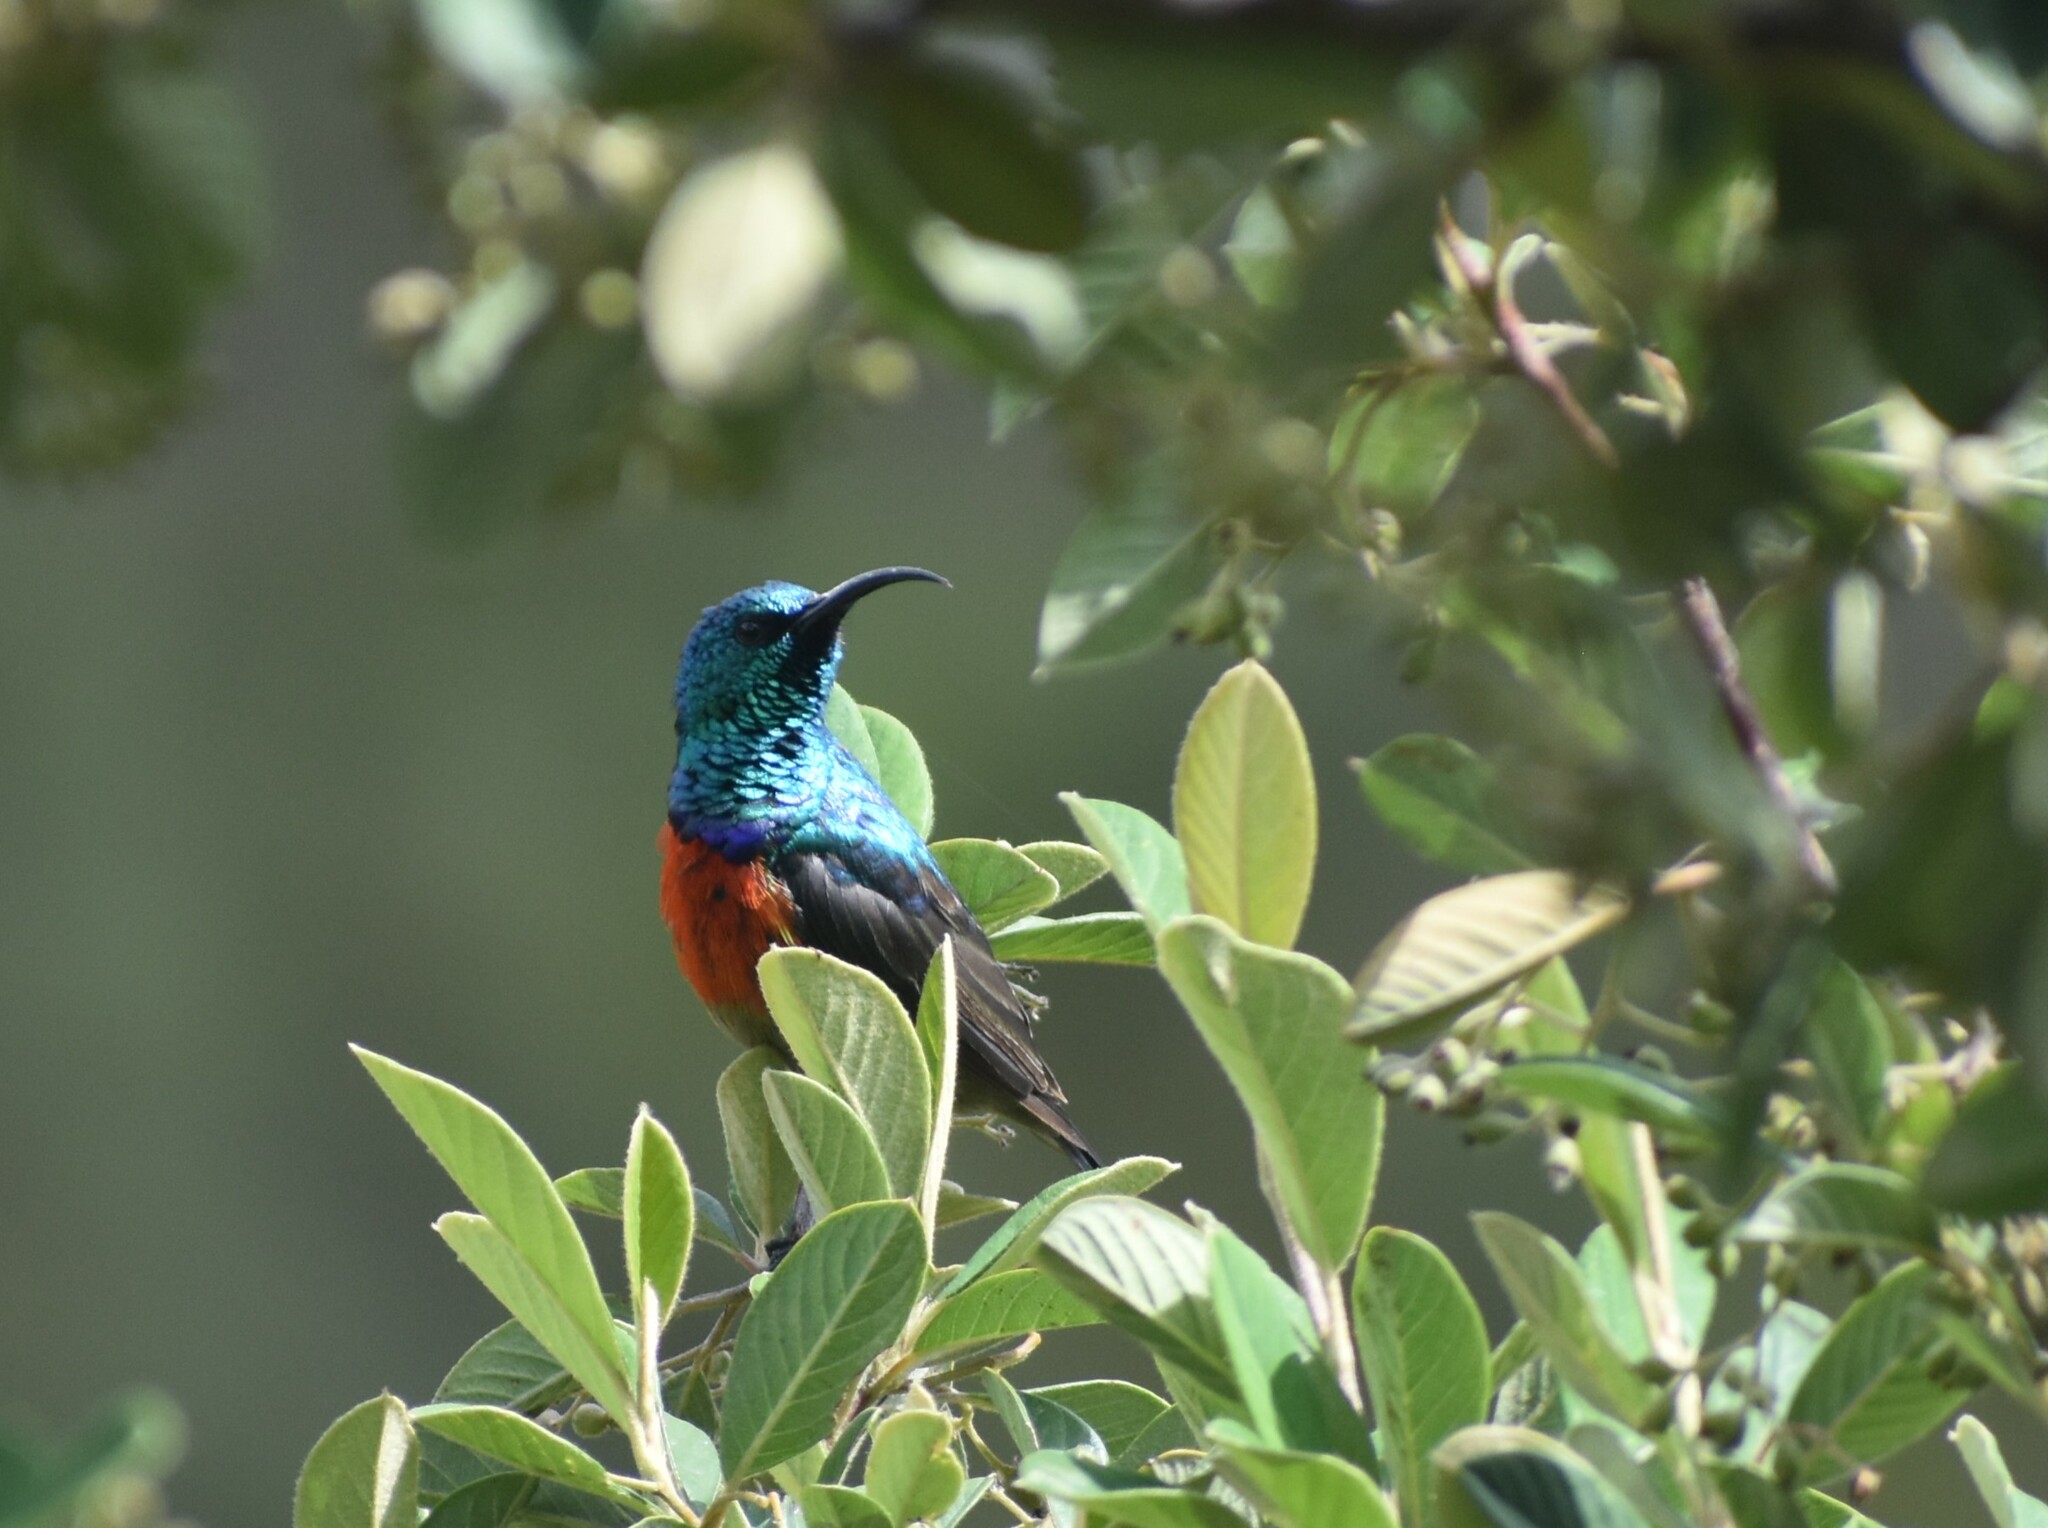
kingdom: Animalia
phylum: Chordata
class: Aves
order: Passeriformes
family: Nectariniidae
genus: Cinnyris
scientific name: Cinnyris afer
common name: Greater double-collared sunbird
